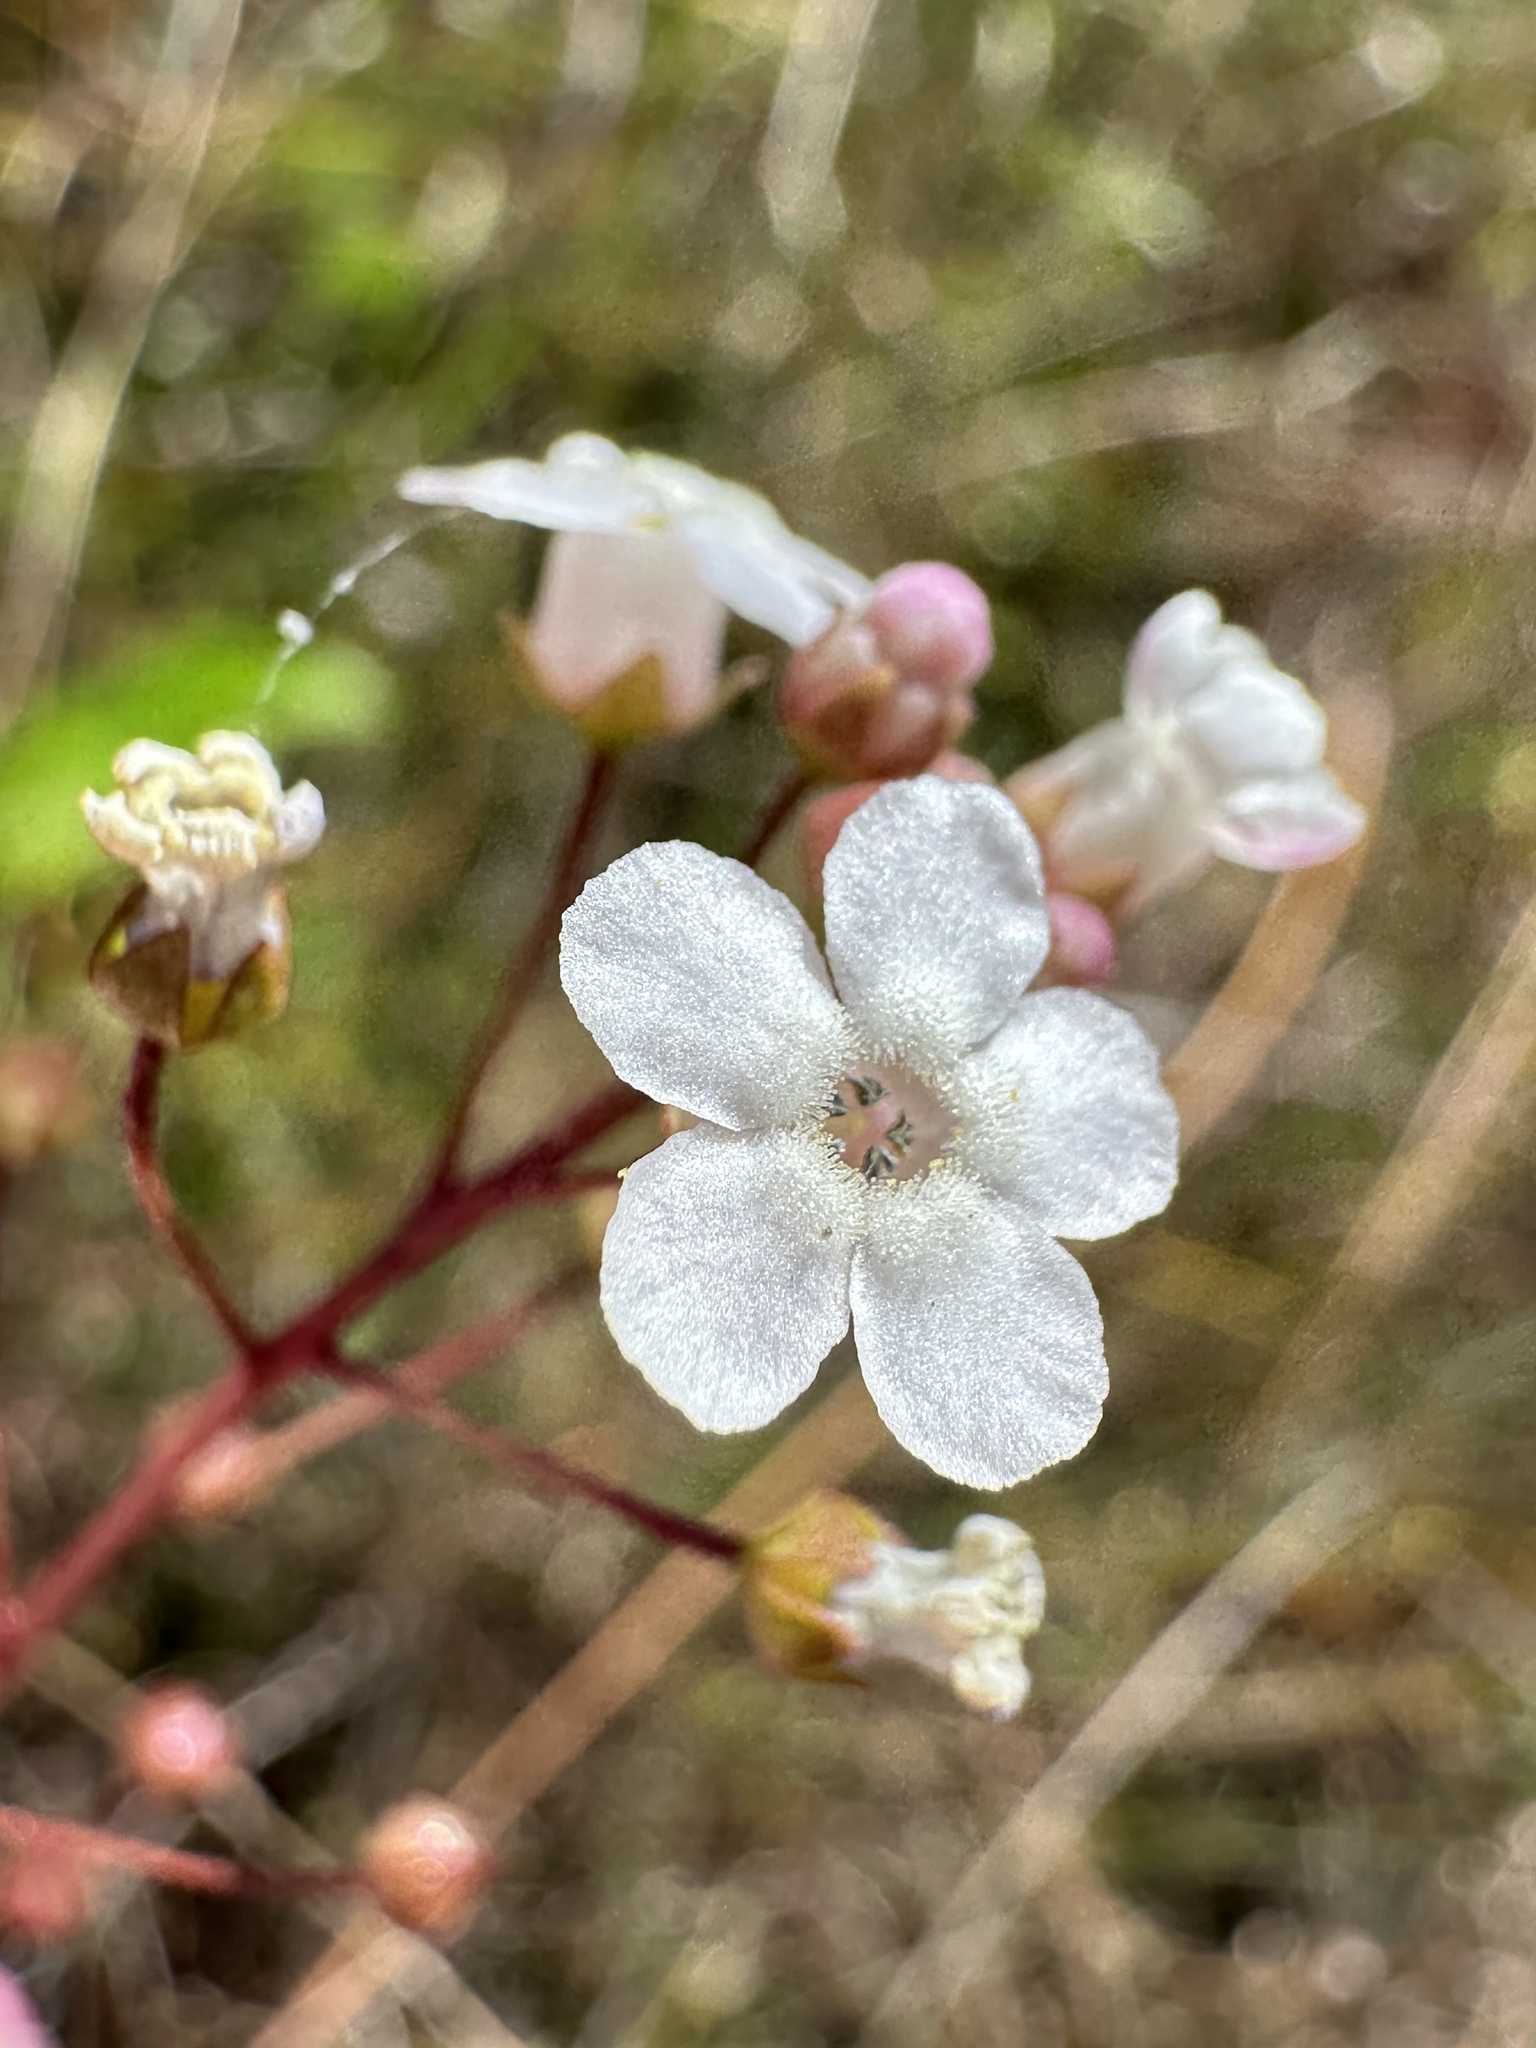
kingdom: Plantae
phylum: Tracheophyta
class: Magnoliopsida
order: Ericales
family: Primulaceae
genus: Samolus
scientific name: Samolus ebracteatus
